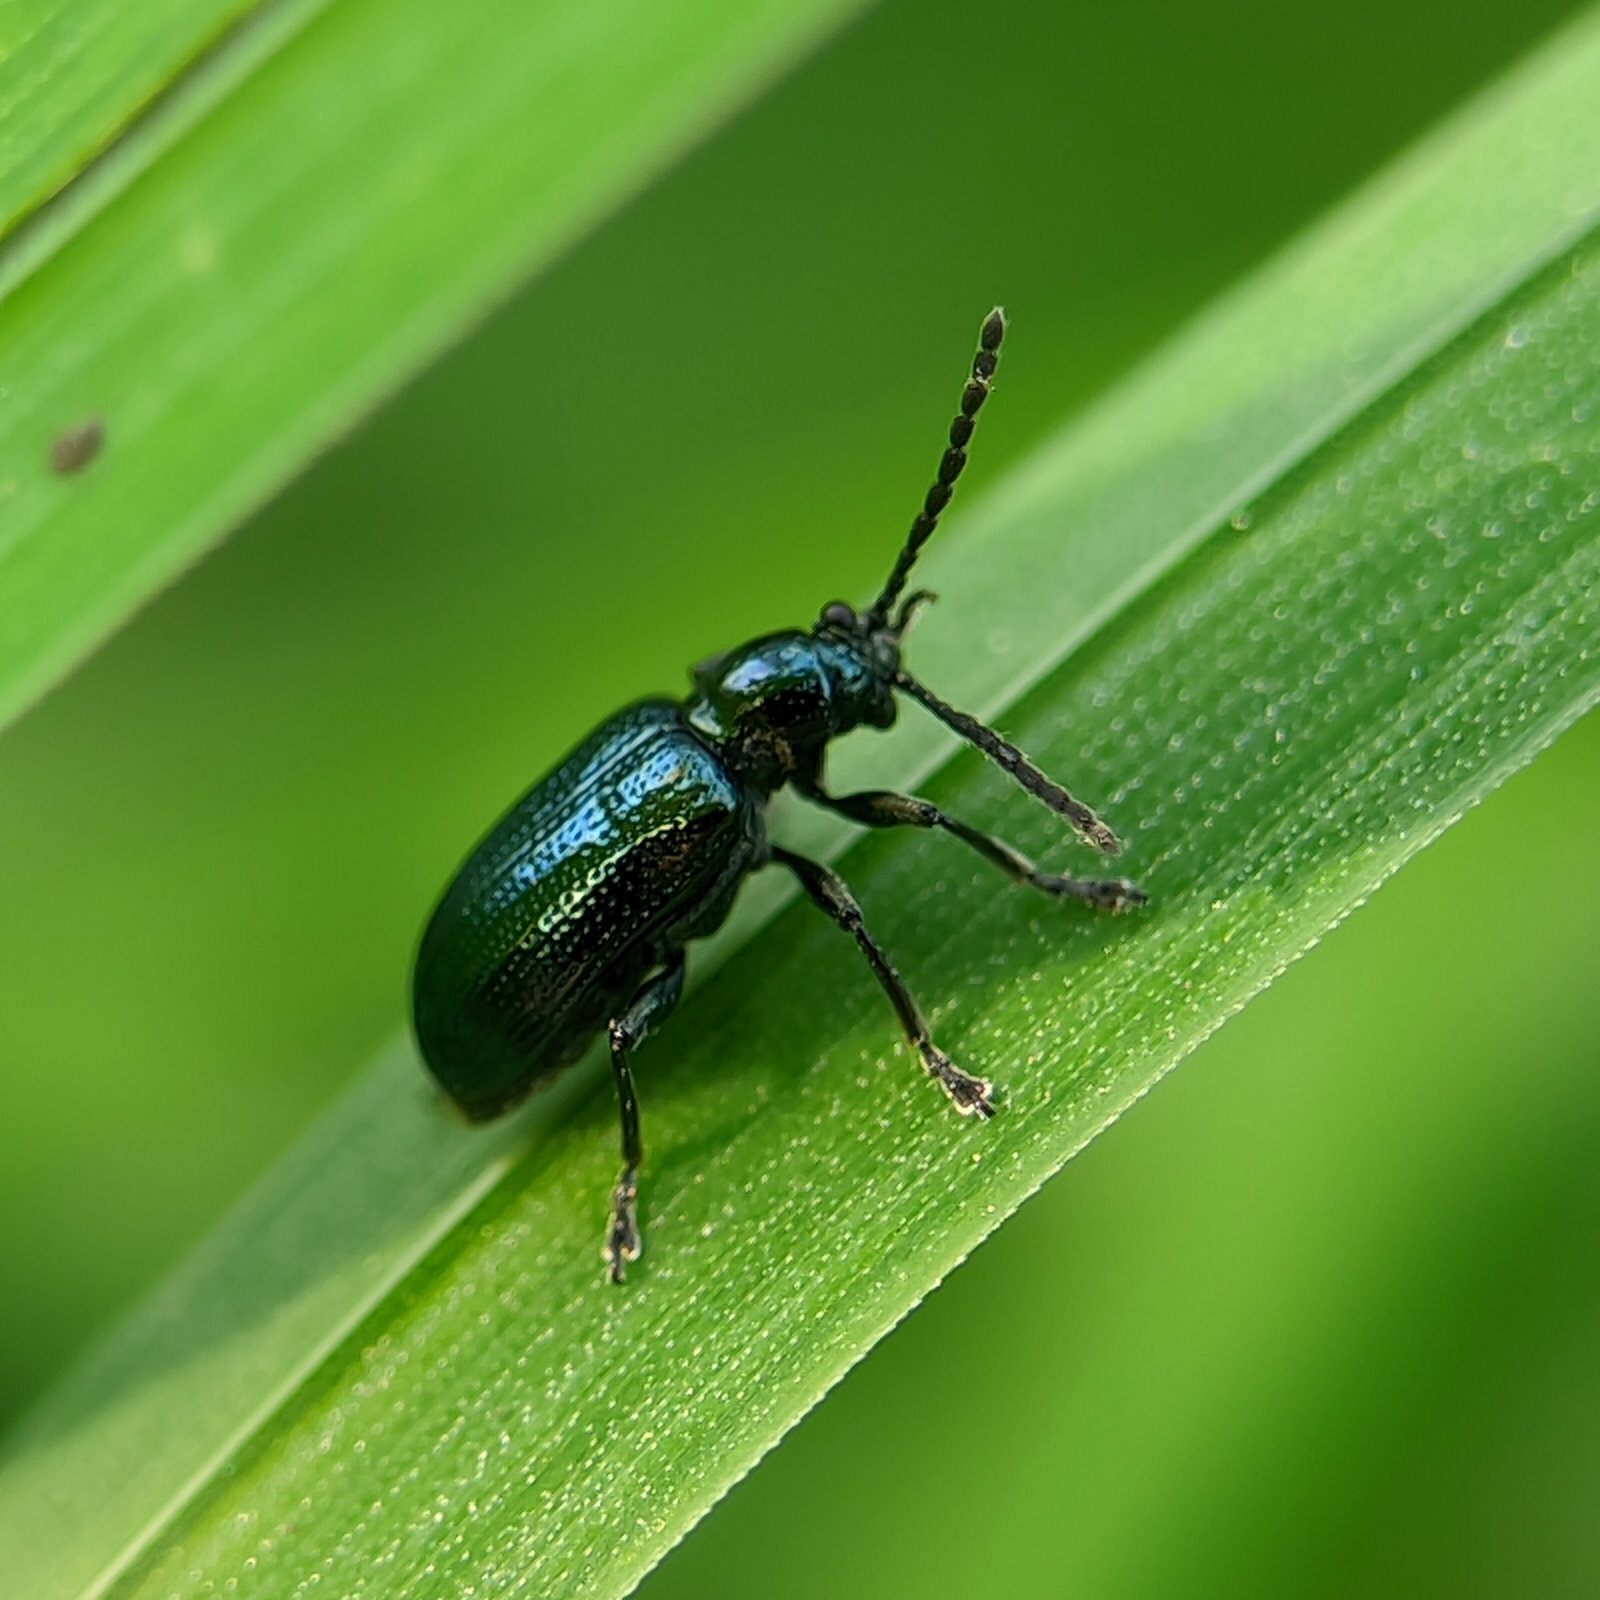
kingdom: Animalia
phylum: Arthropoda
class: Insecta
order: Coleoptera
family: Chrysomelidae
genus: Oulema
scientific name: Oulema gallaeciana
